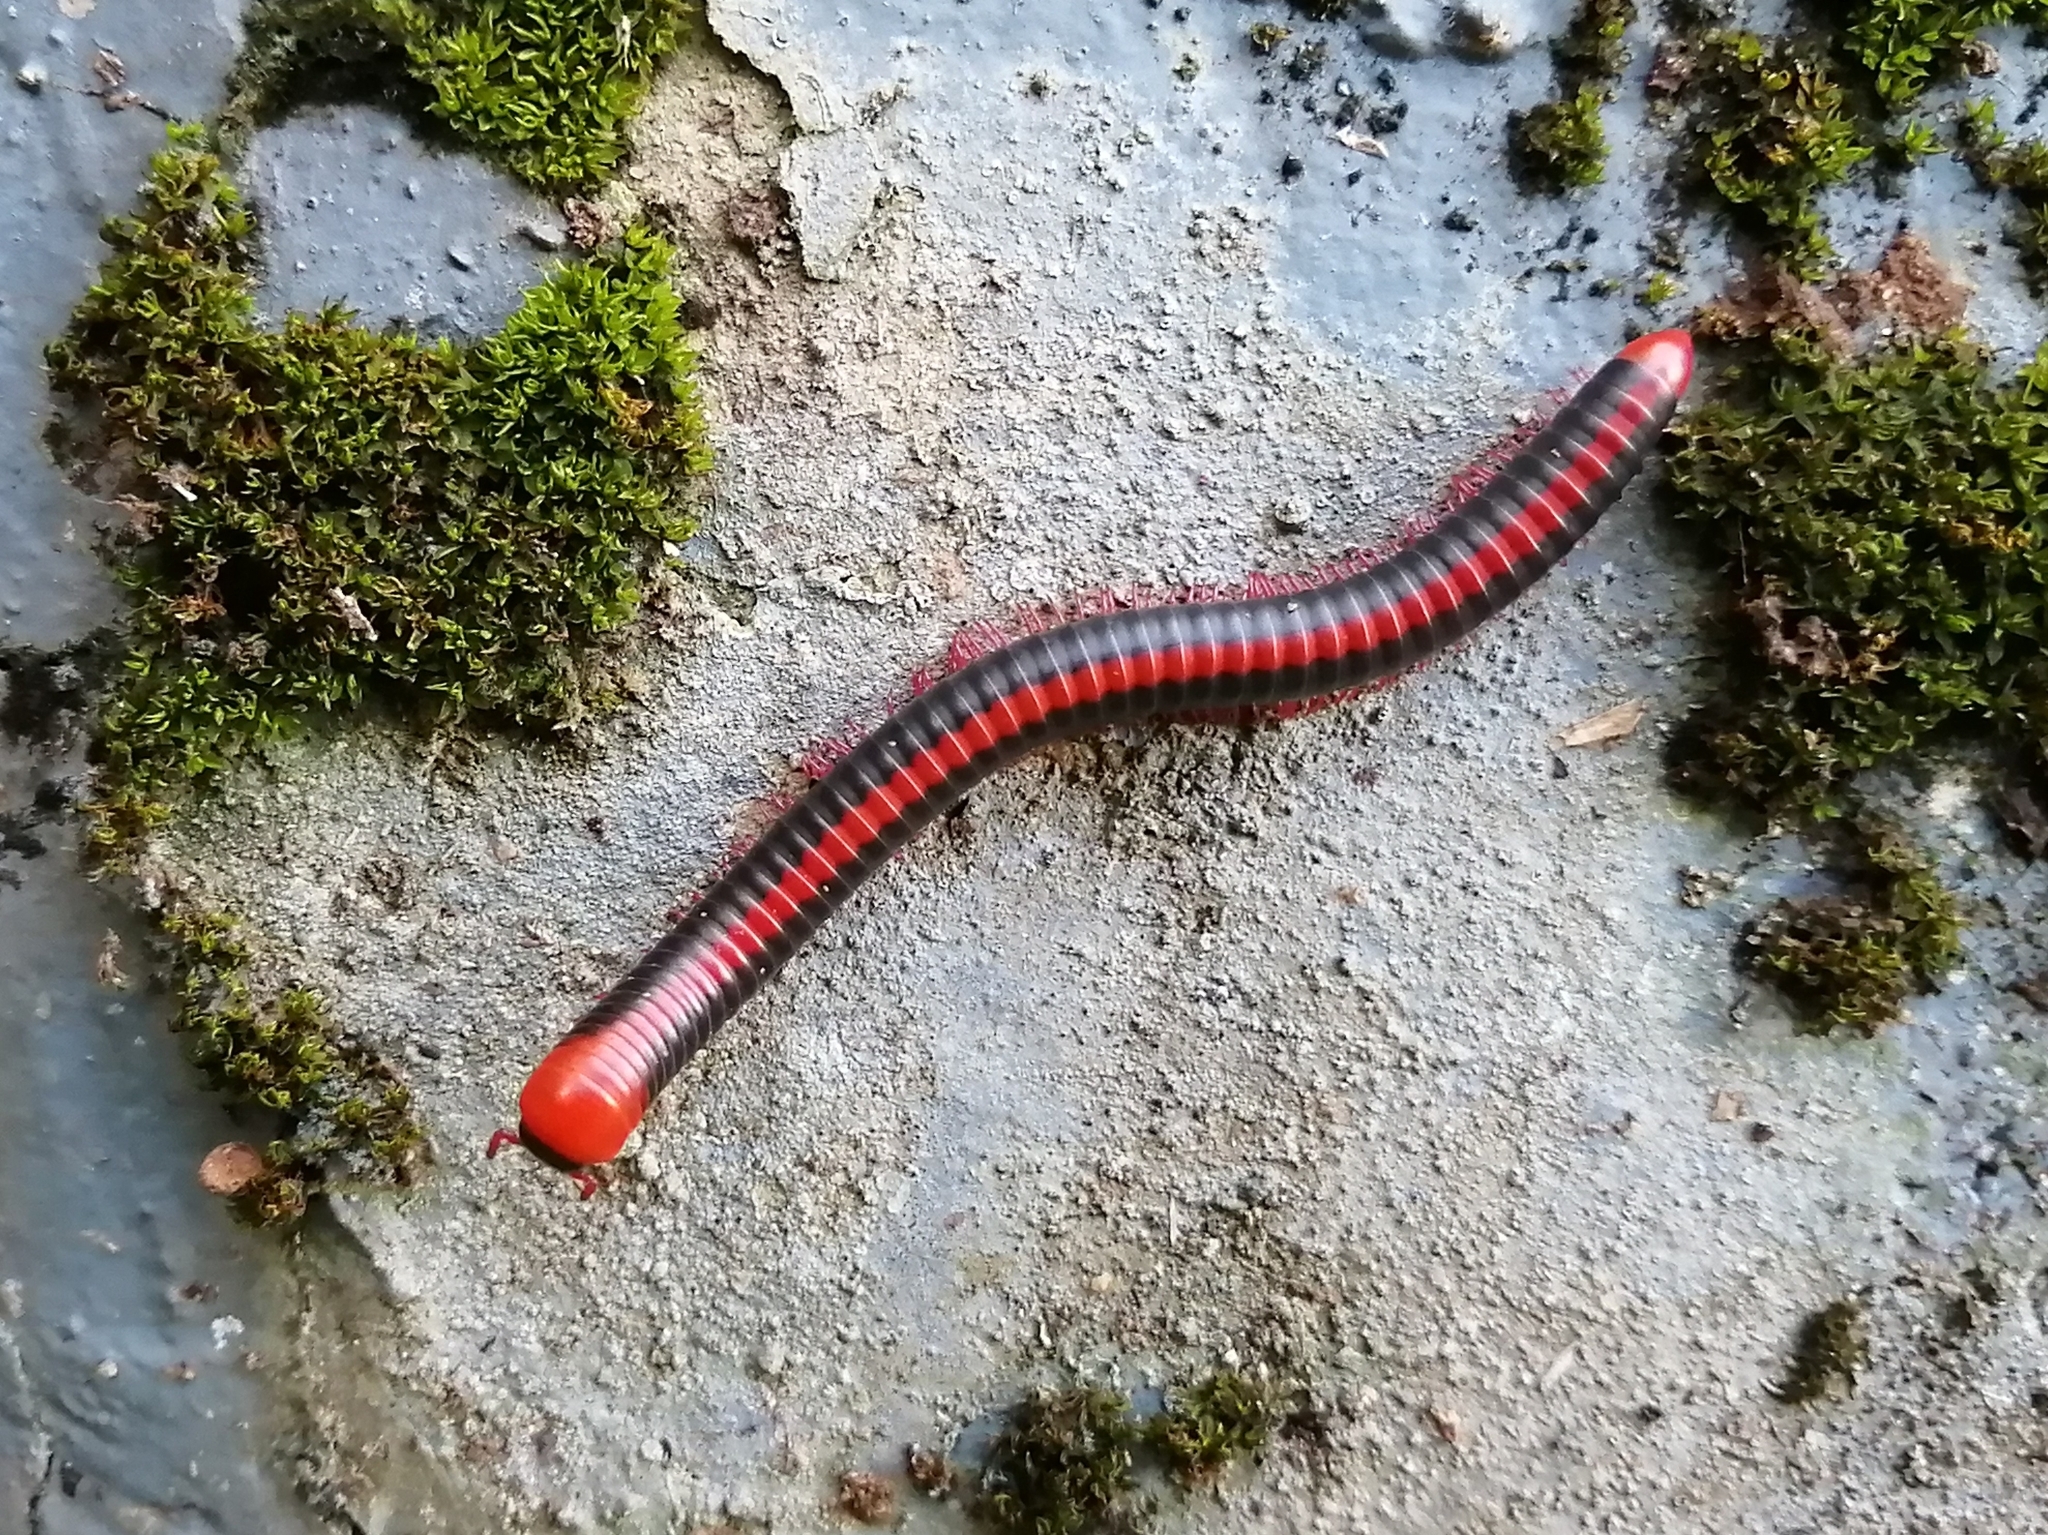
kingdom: Animalia
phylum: Arthropoda
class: Diplopoda
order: Spirobolida
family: Pachybolidae
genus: Xenobolus
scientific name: Xenobolus carnifex
